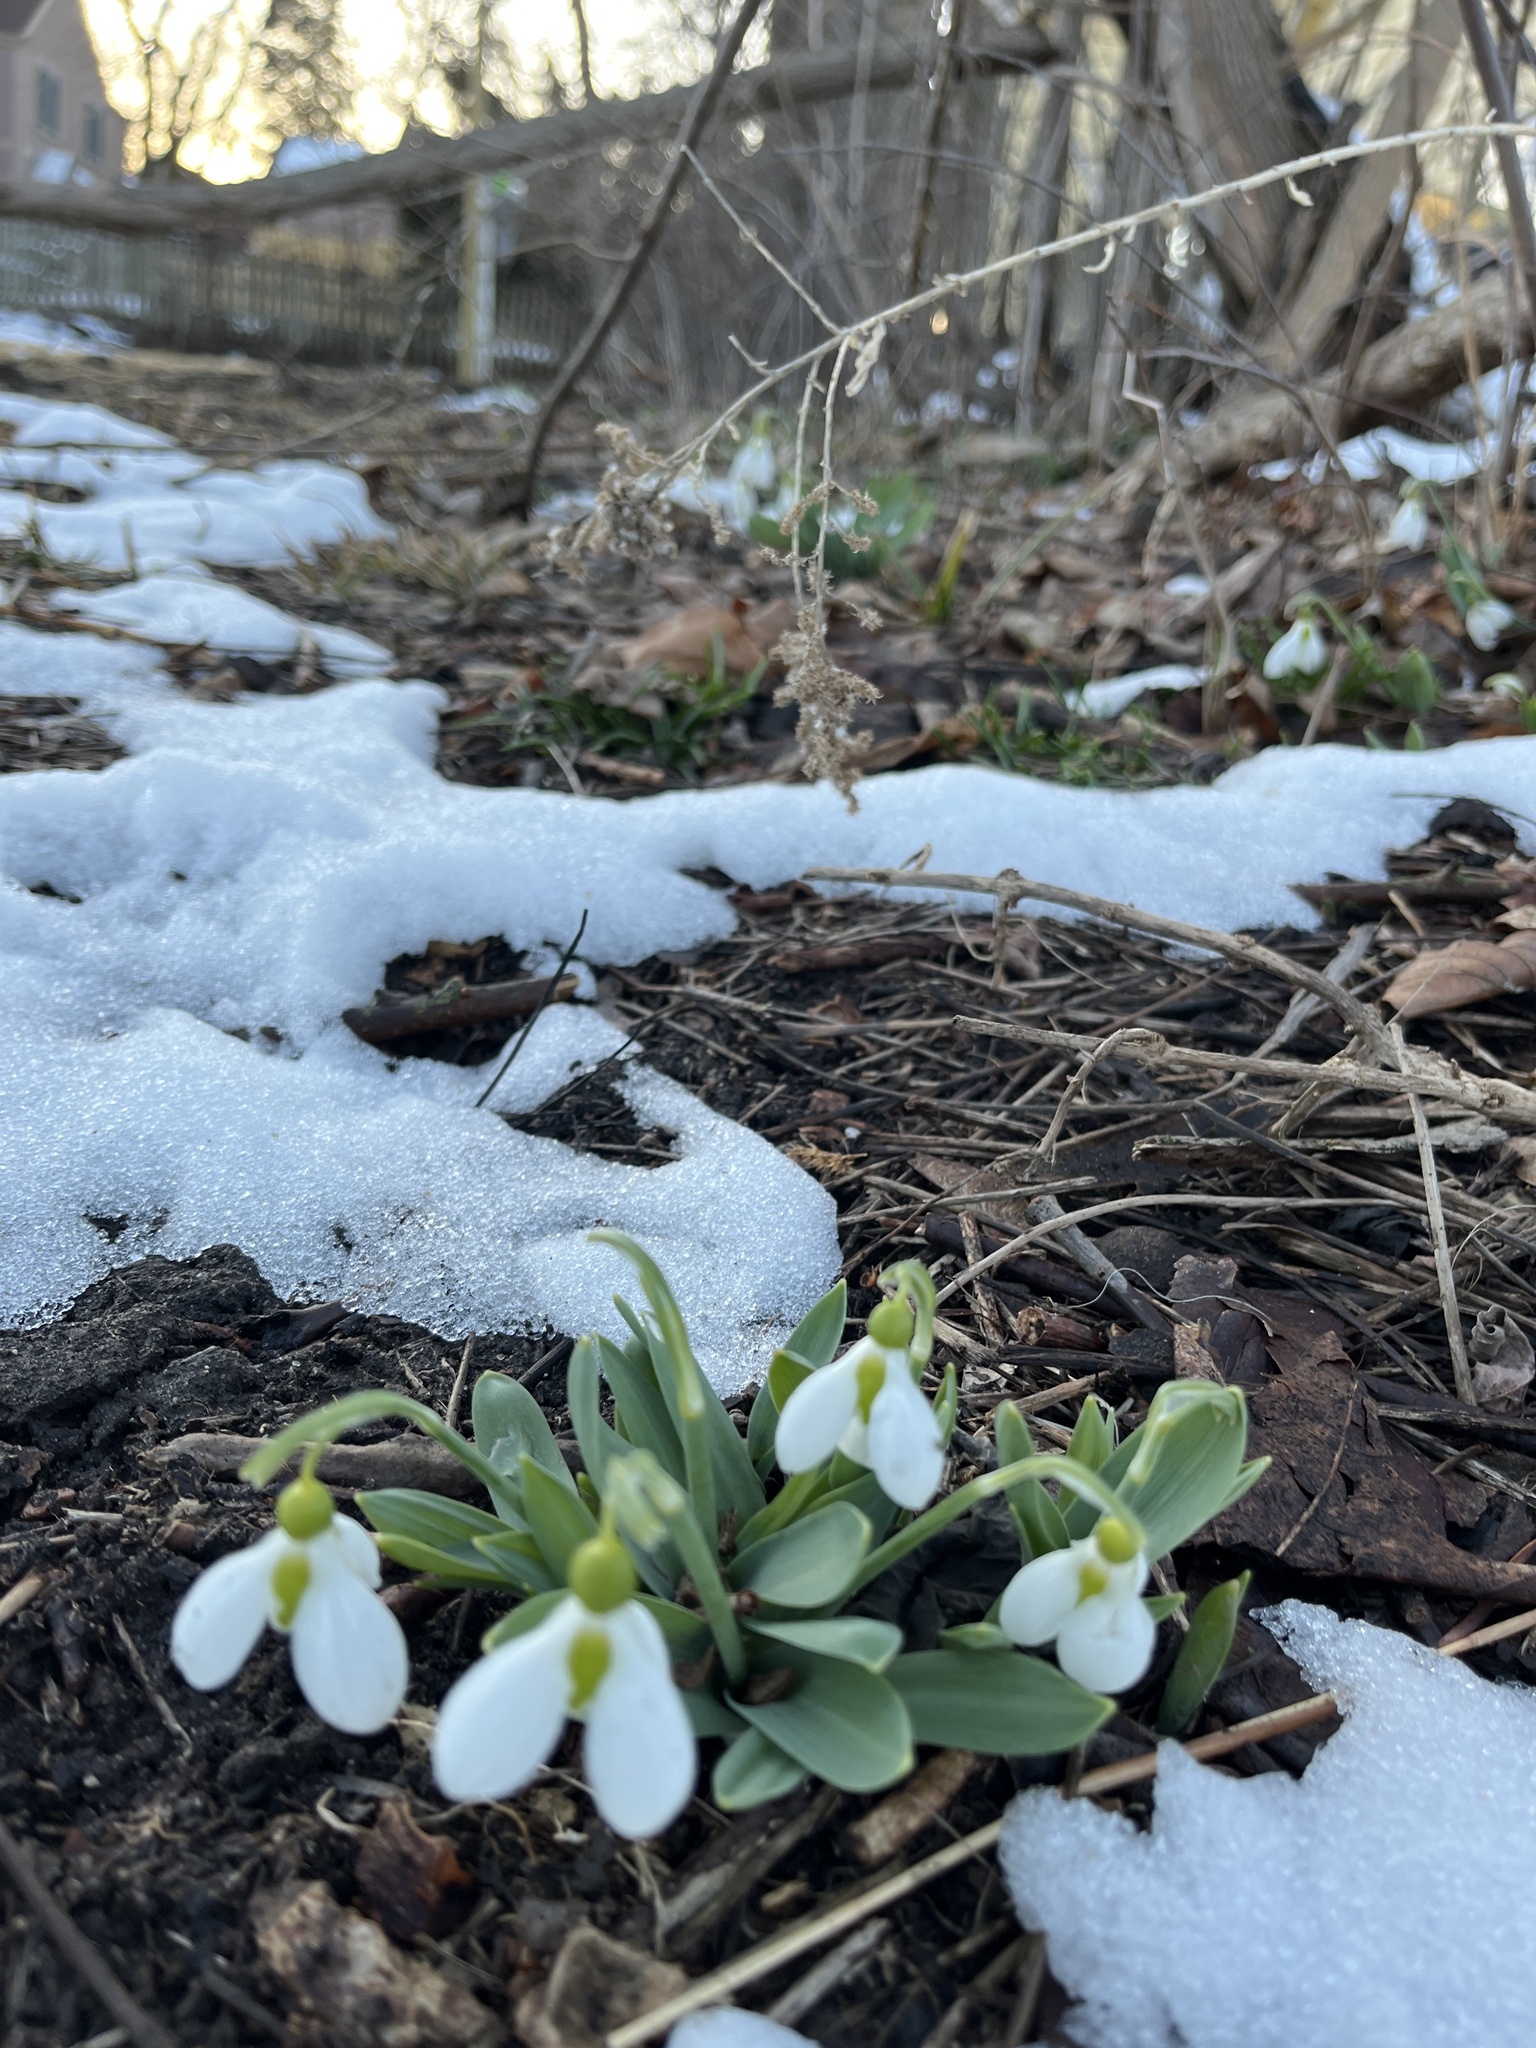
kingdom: Plantae
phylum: Tracheophyta
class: Liliopsida
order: Asparagales
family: Amaryllidaceae
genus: Galanthus
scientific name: Galanthus elwesii
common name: Greater snowdrop
